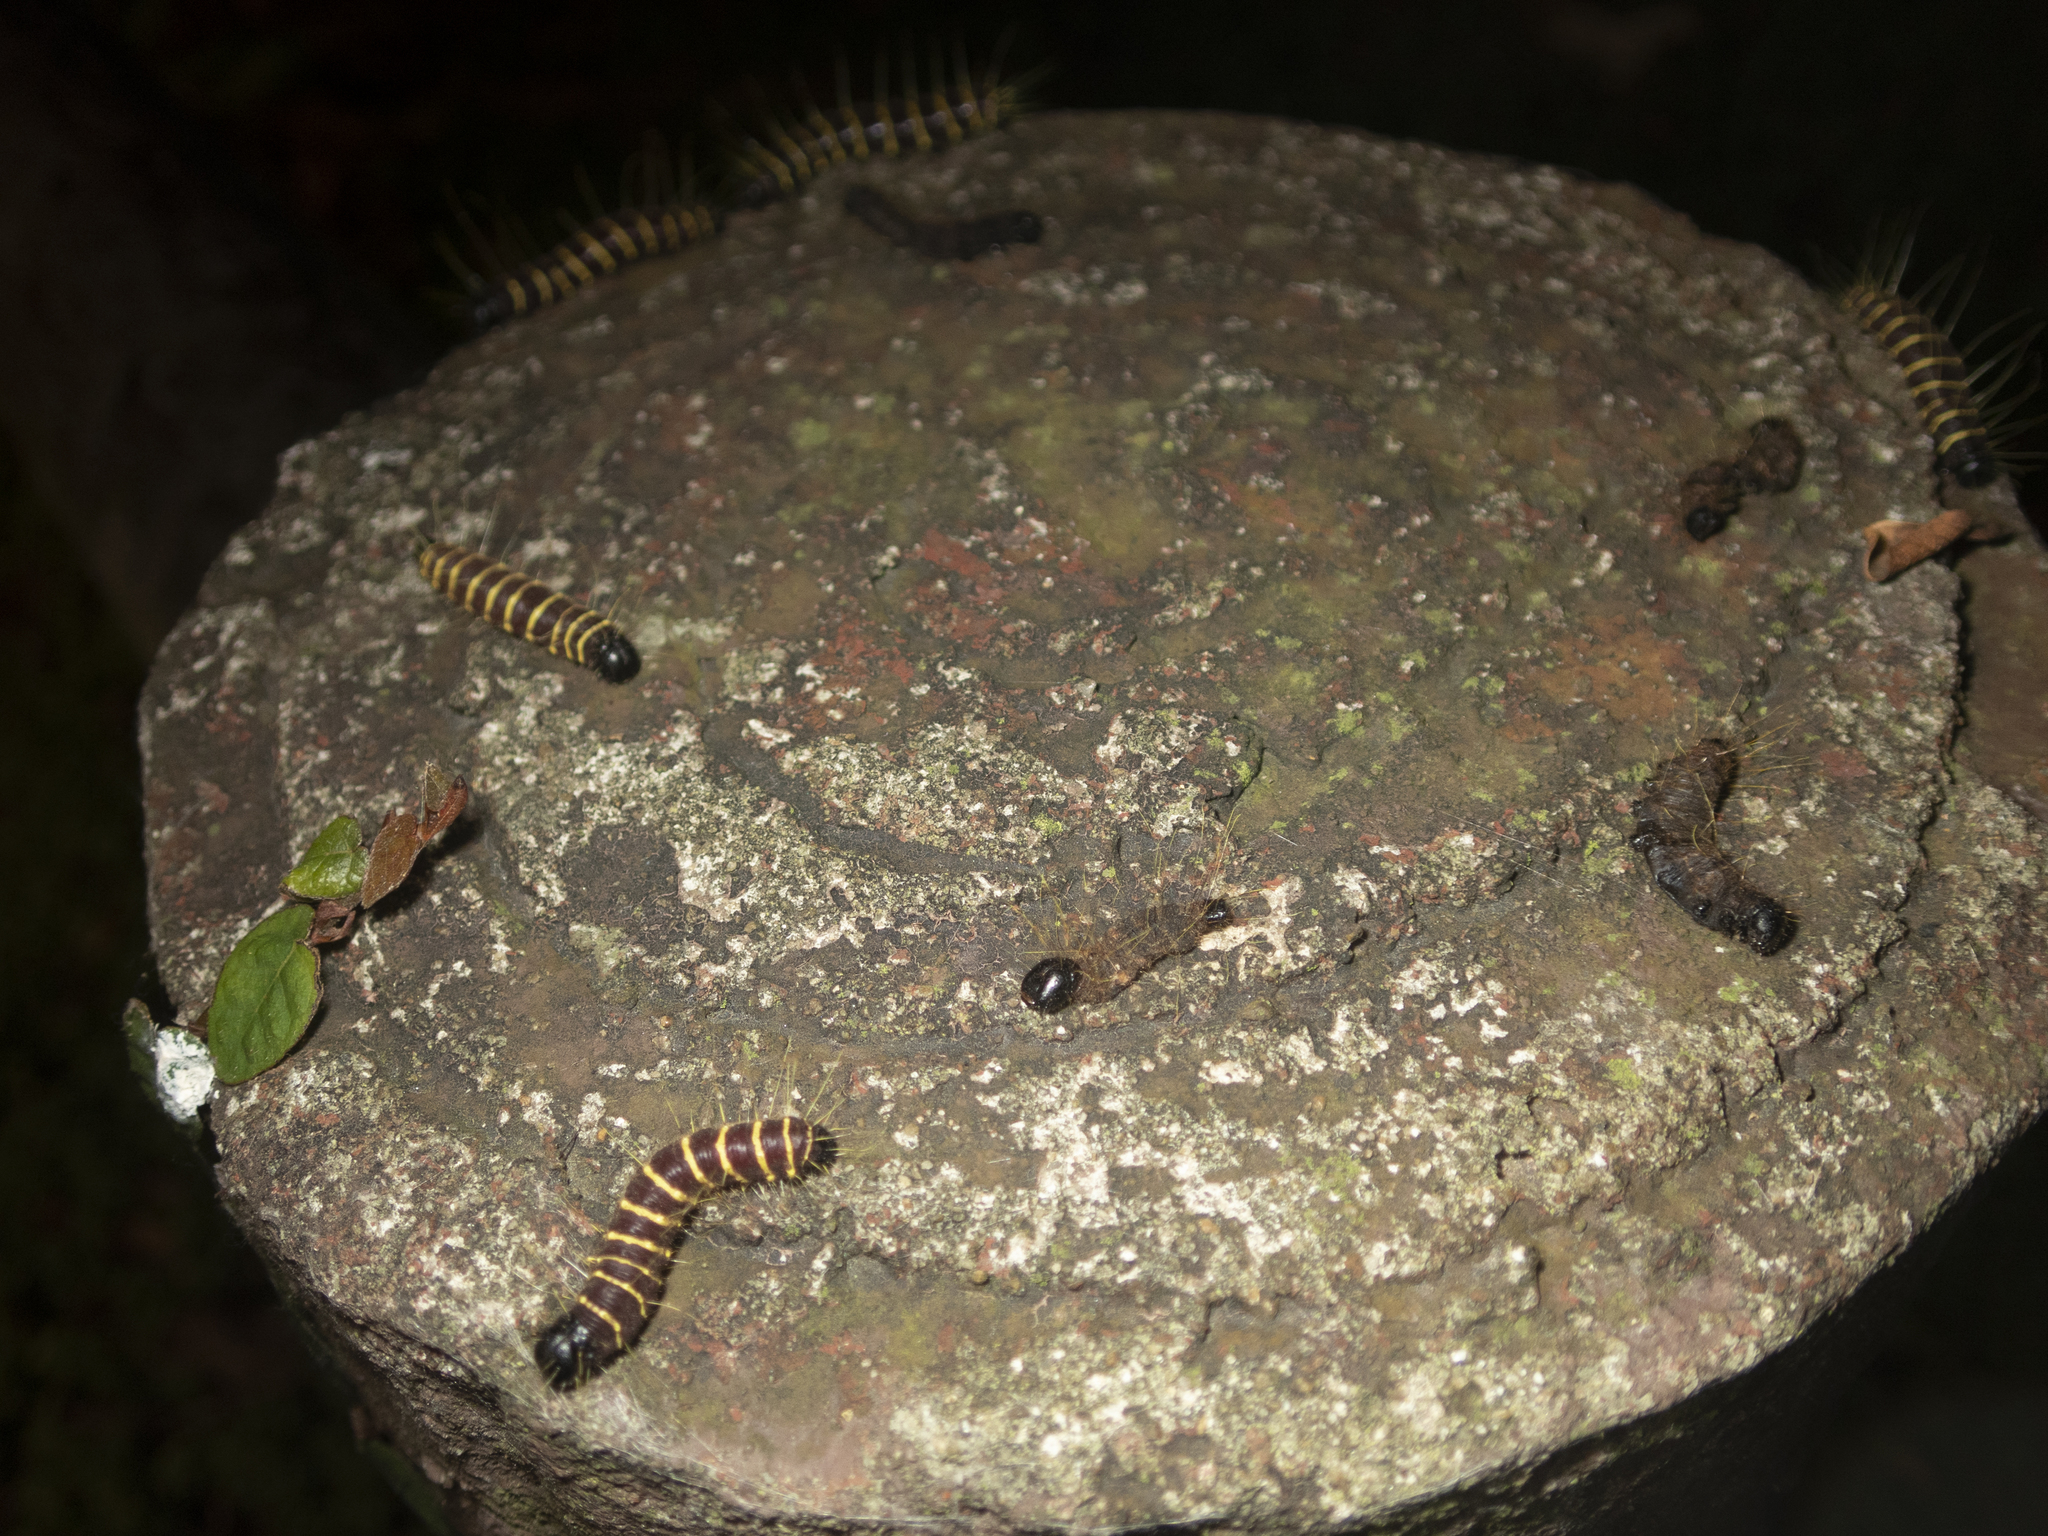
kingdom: Animalia
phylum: Arthropoda
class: Insecta
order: Lepidoptera
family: Pieridae
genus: Delias
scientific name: Delias pasithoe
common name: Red-base jezebel
